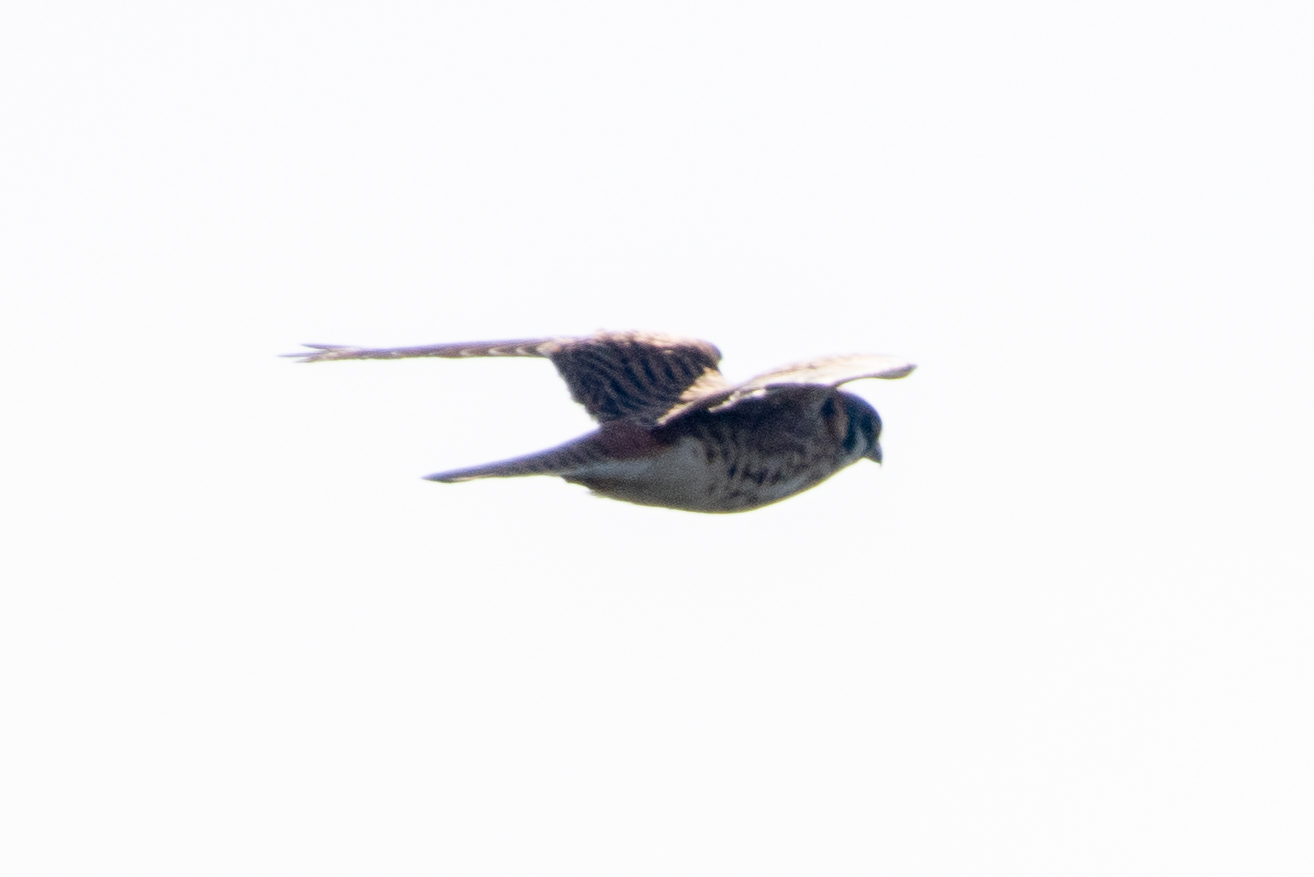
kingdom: Animalia
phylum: Chordata
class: Aves
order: Falconiformes
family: Falconidae
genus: Falco
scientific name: Falco sparverius
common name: American kestrel
